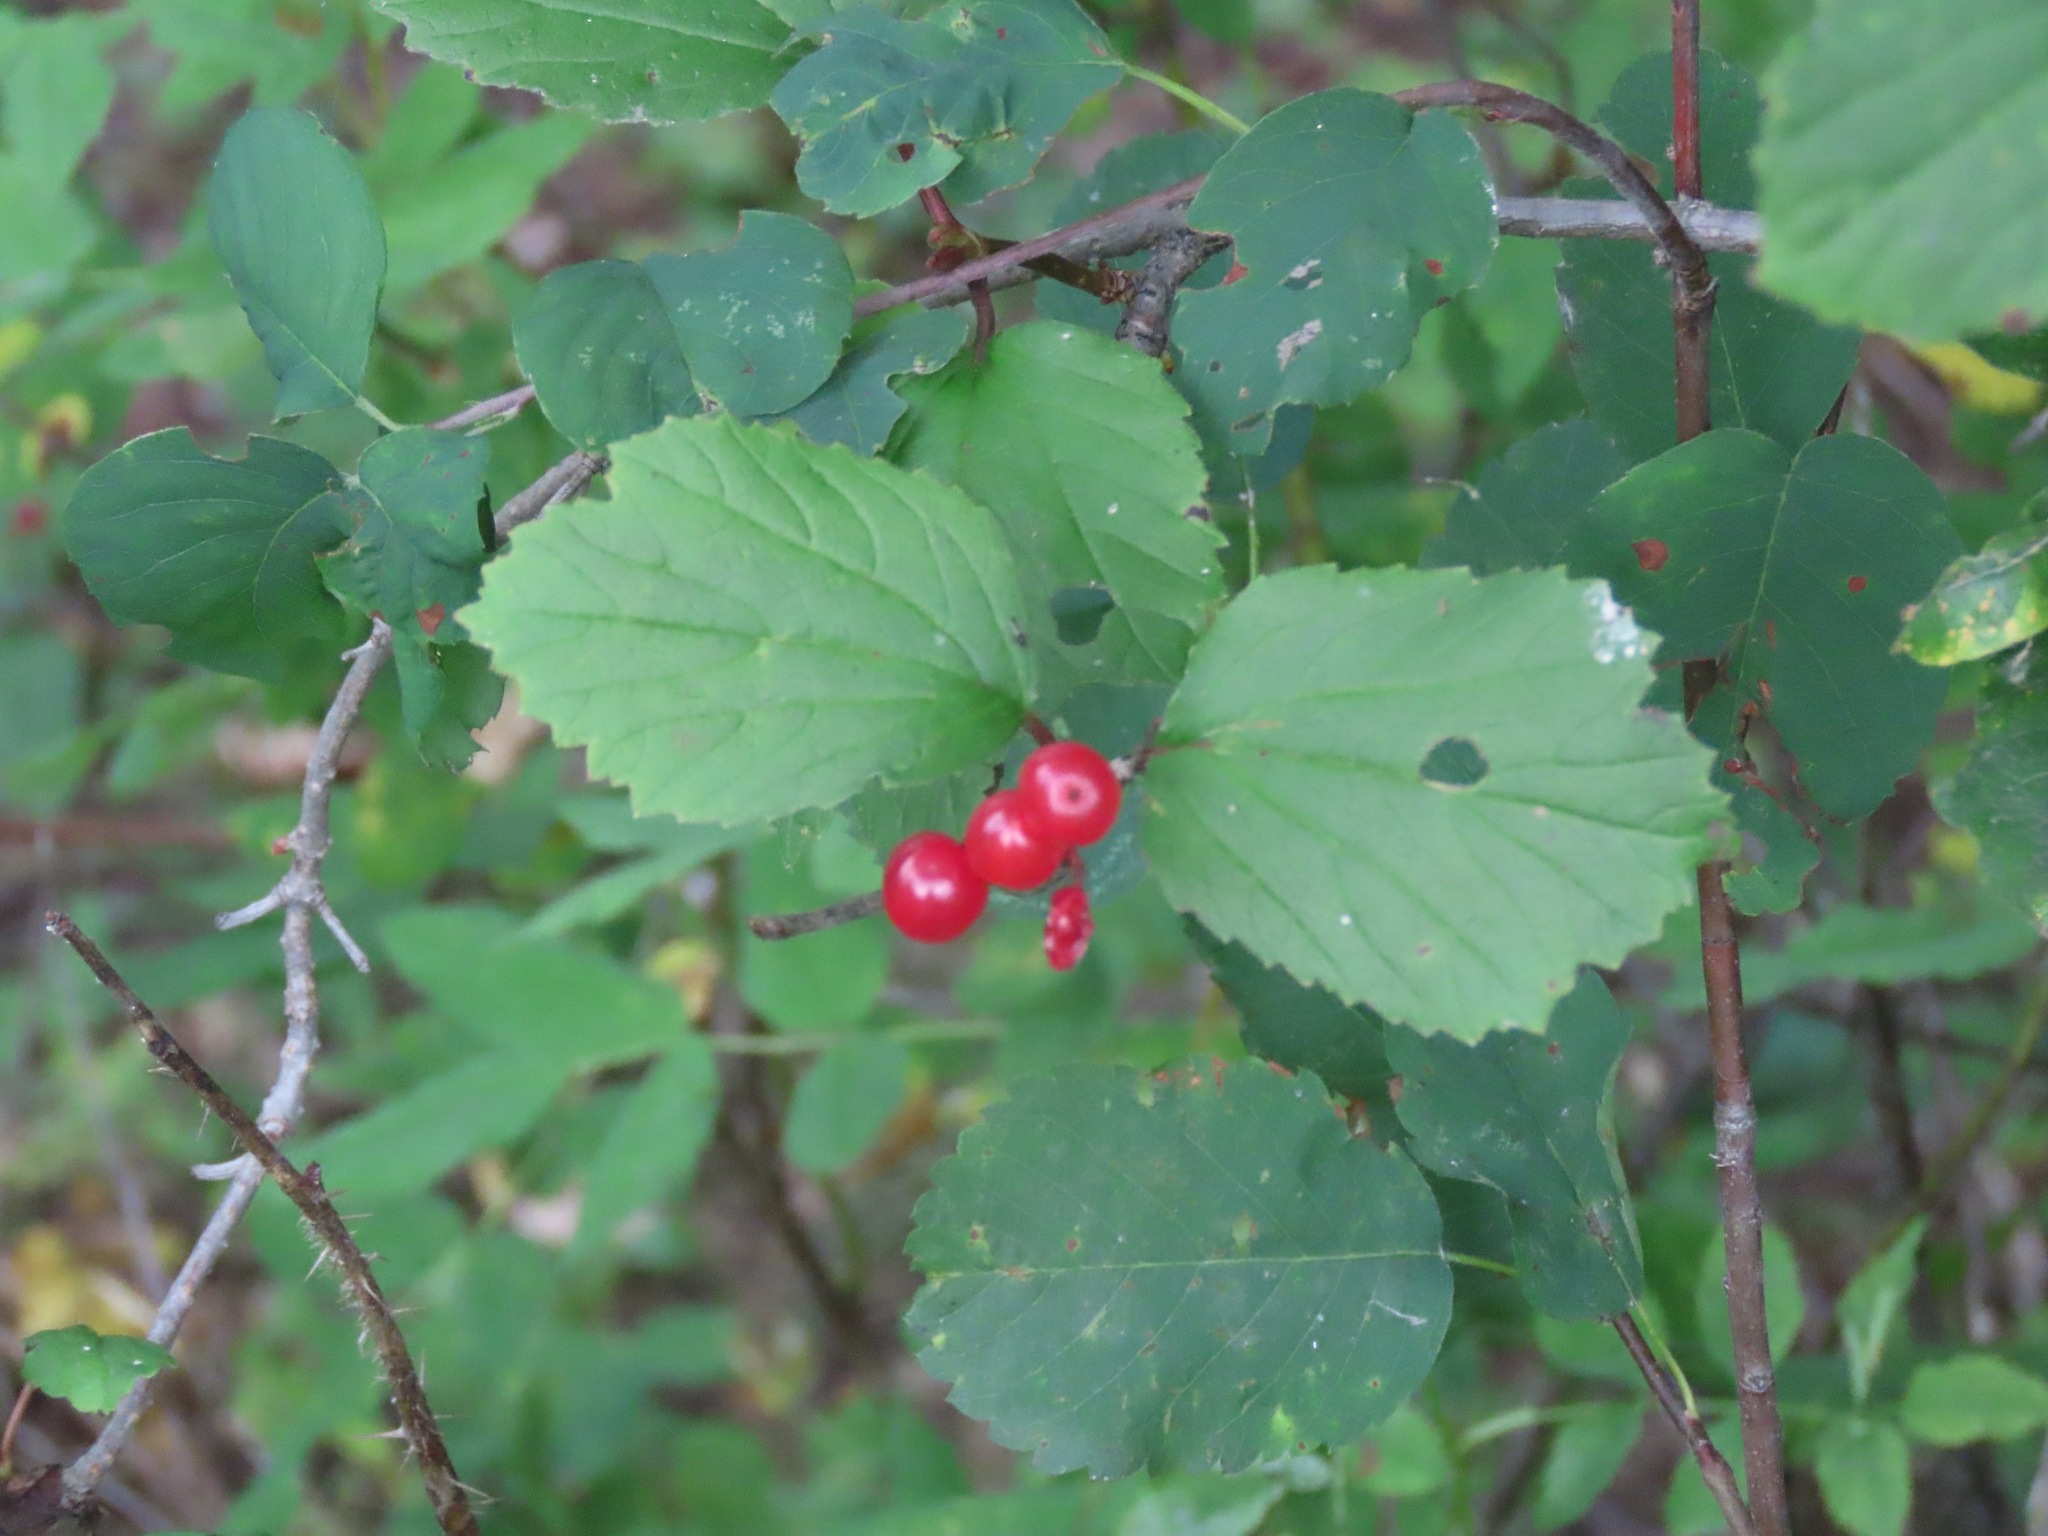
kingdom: Plantae
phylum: Tracheophyta
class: Magnoliopsida
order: Dipsacales
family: Viburnaceae
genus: Viburnum
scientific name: Viburnum edule
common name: Mooseberry
